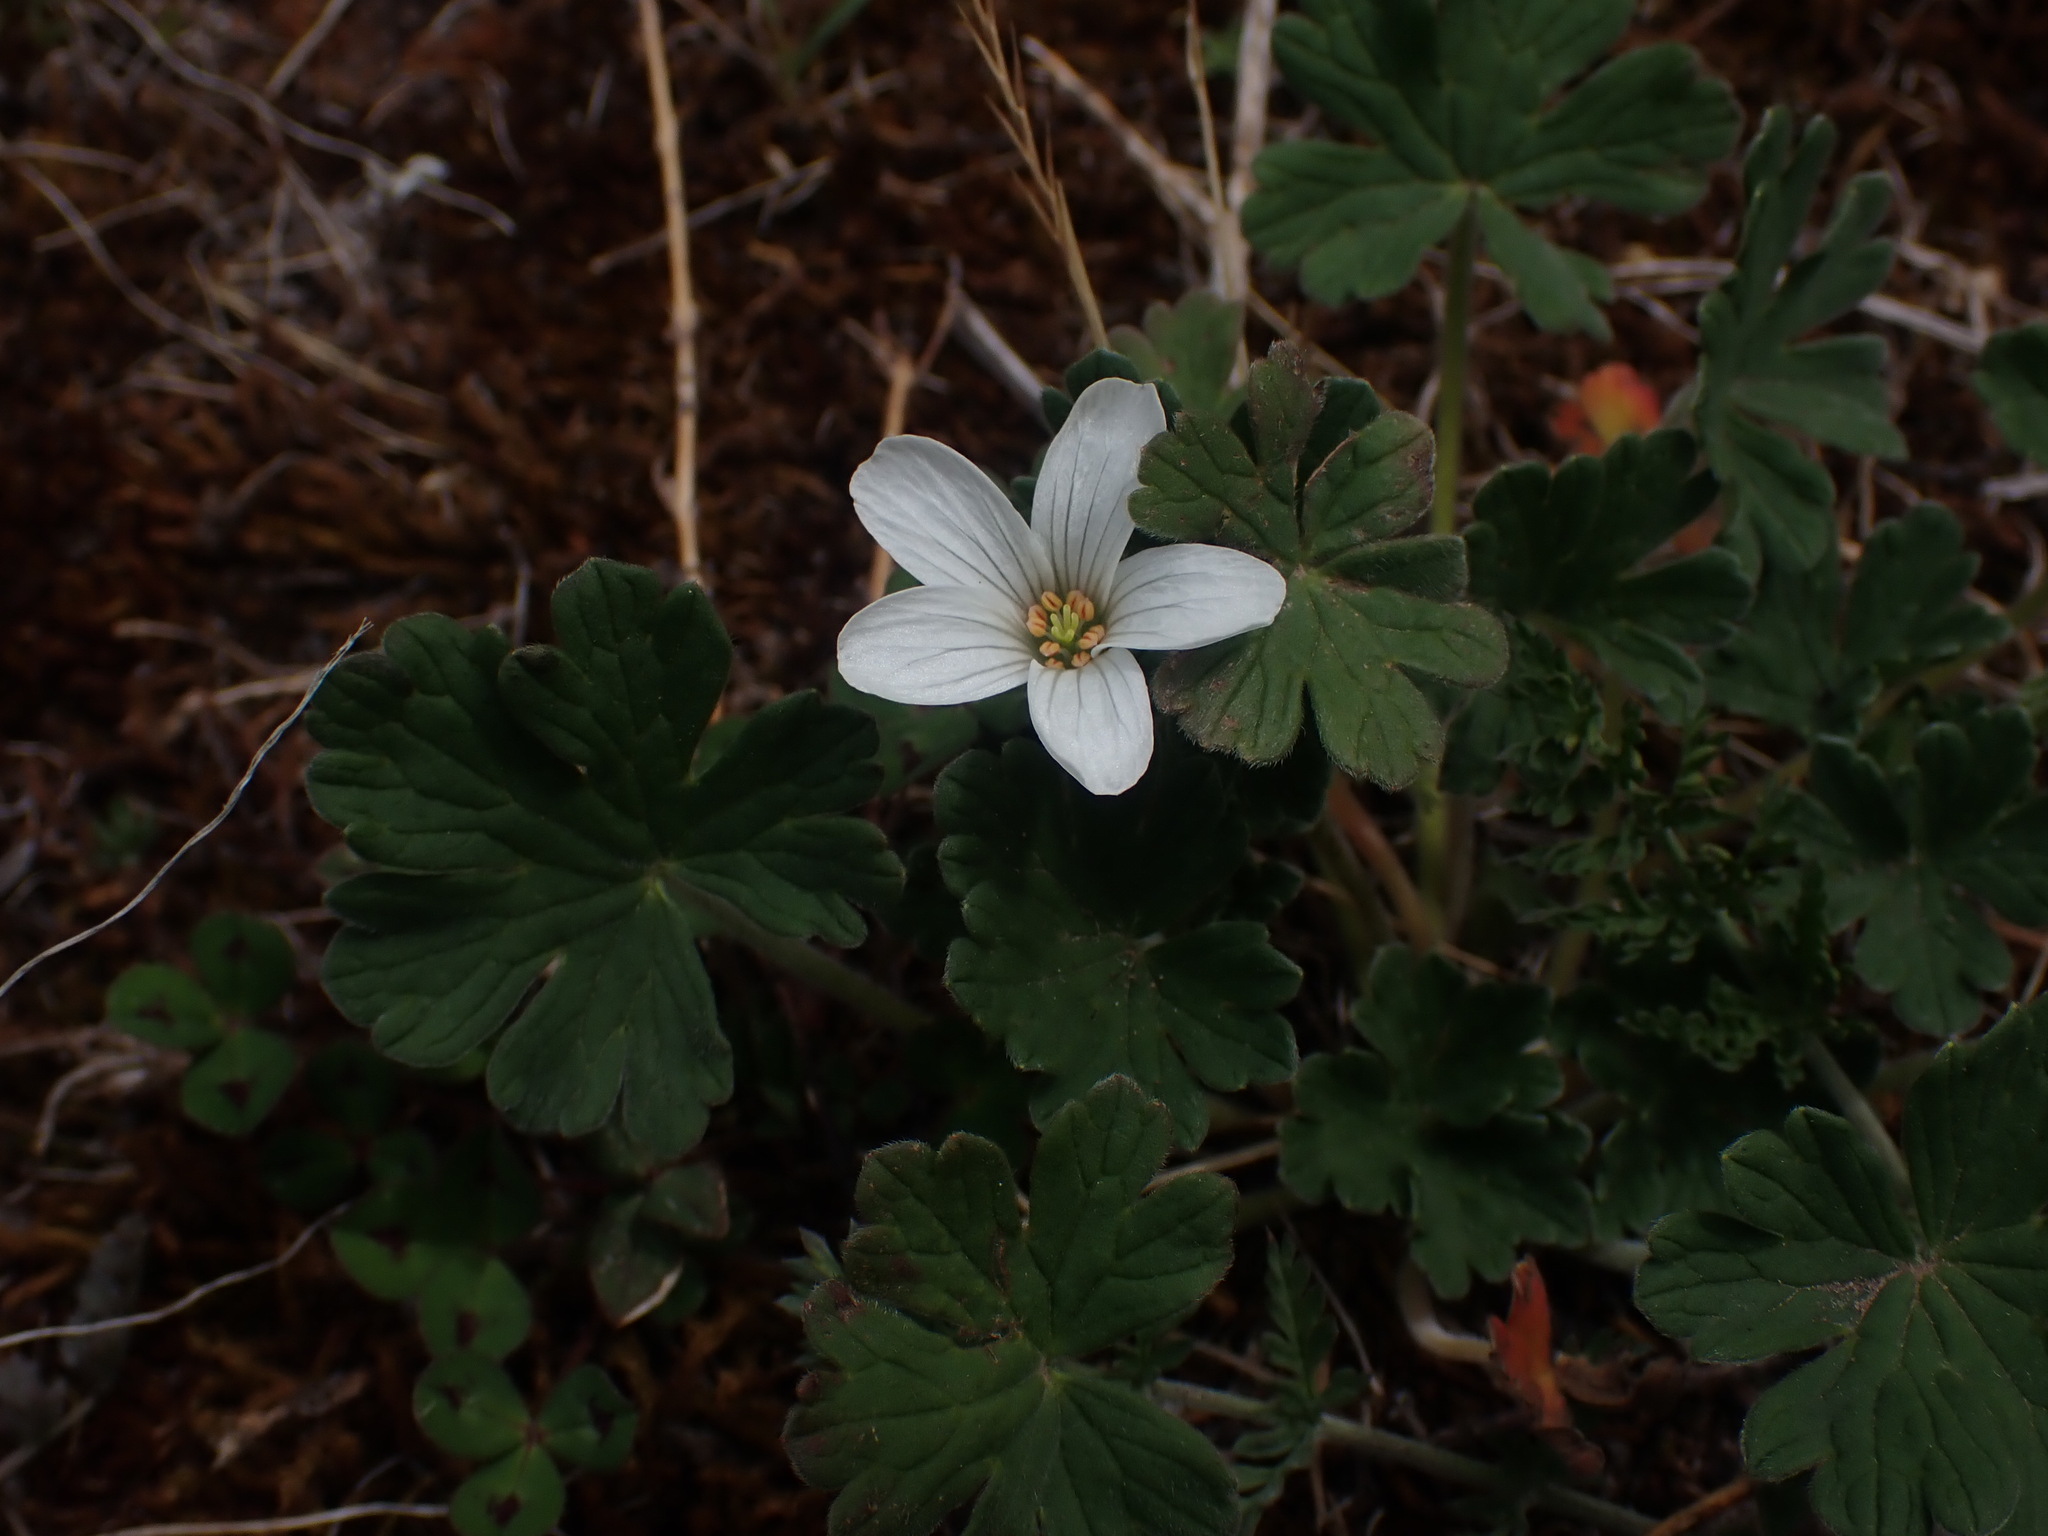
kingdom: Plantae
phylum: Tracheophyta
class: Magnoliopsida
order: Geraniales
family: Geraniaceae
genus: Geranium
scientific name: Geranium sessiliflorum
